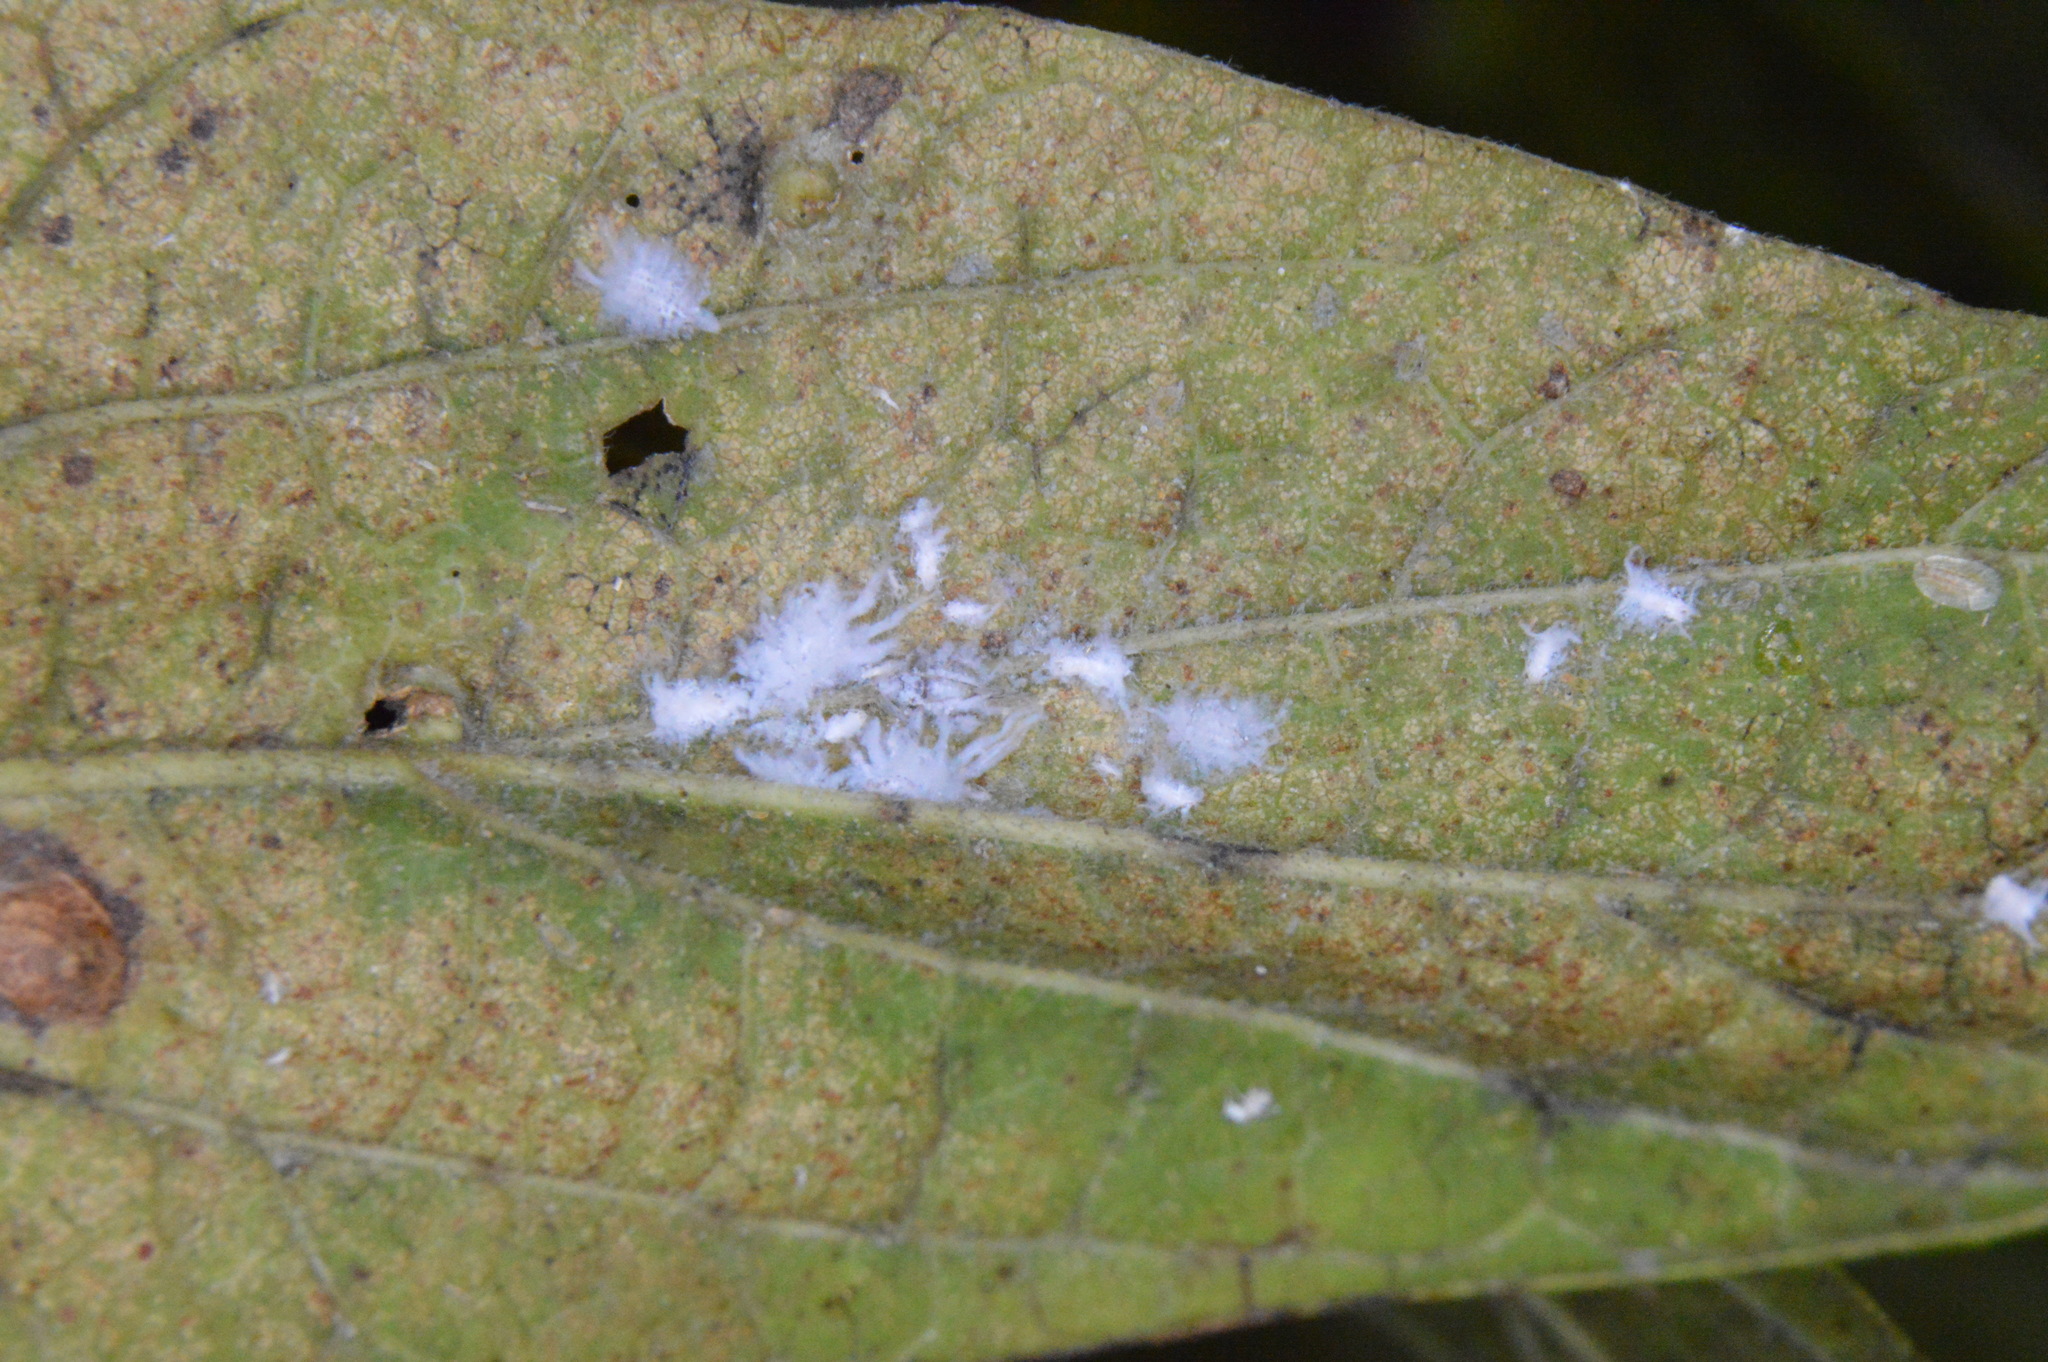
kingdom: Animalia
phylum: Arthropoda
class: Insecta
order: Hemiptera
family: Aphididae
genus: Shivaphis
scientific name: Shivaphis celti
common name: Asian wooly hackberry aphid
